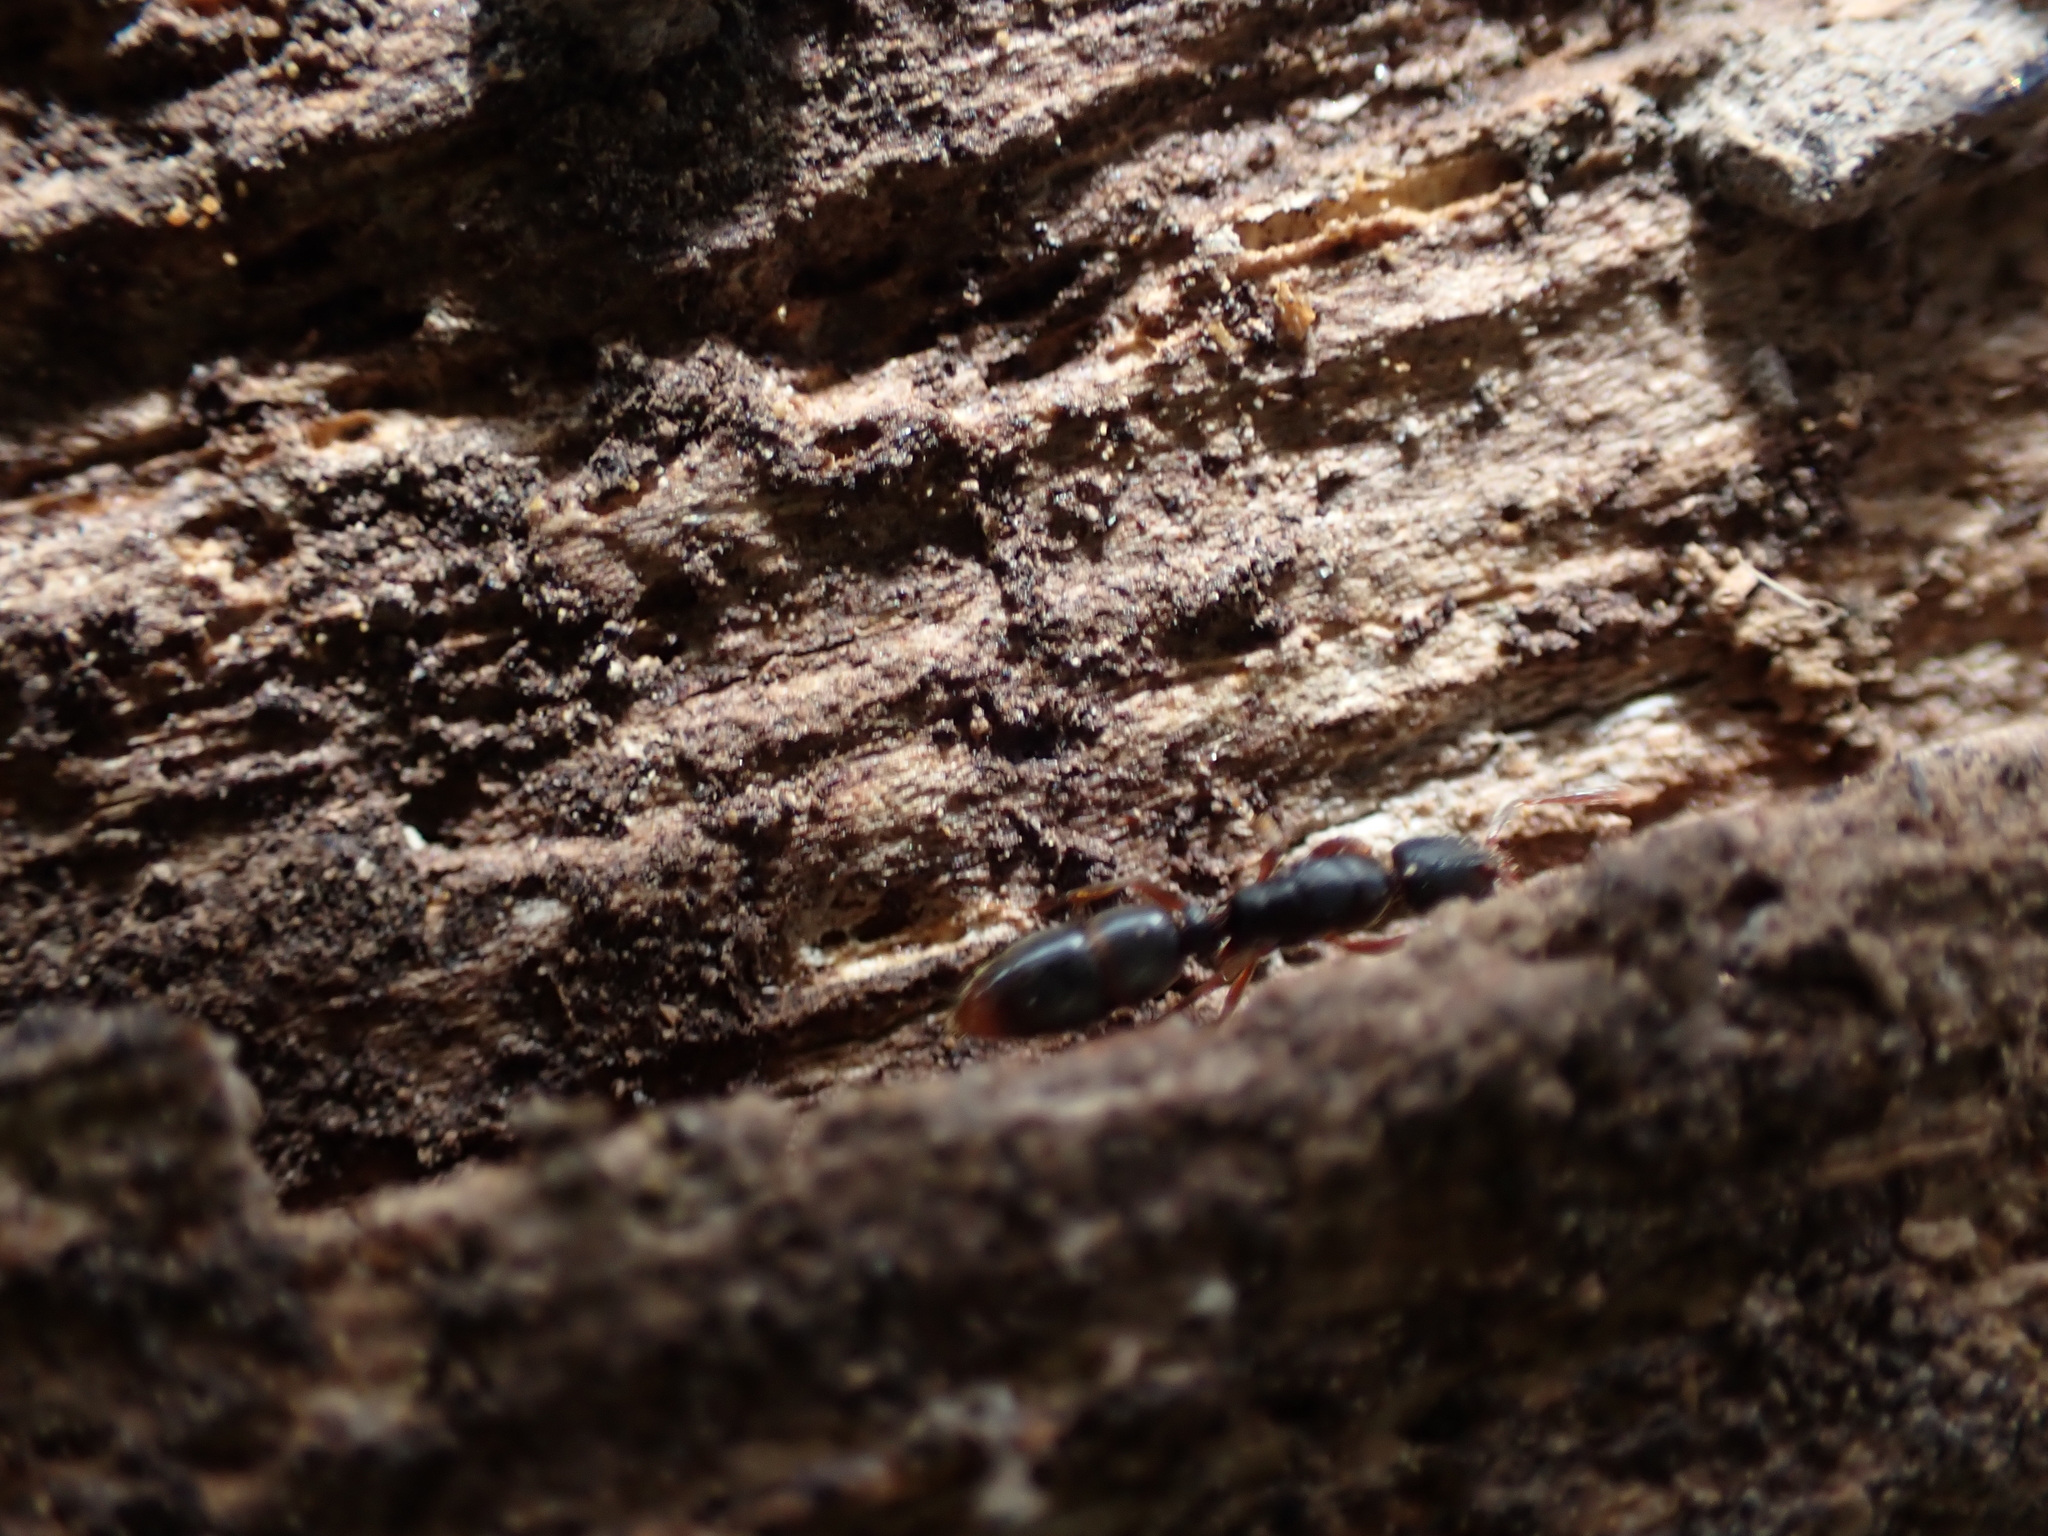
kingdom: Animalia
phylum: Arthropoda
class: Insecta
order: Hymenoptera
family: Formicidae
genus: Ponera
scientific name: Ponera pennsylvanica
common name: Pennsylvania ponera
